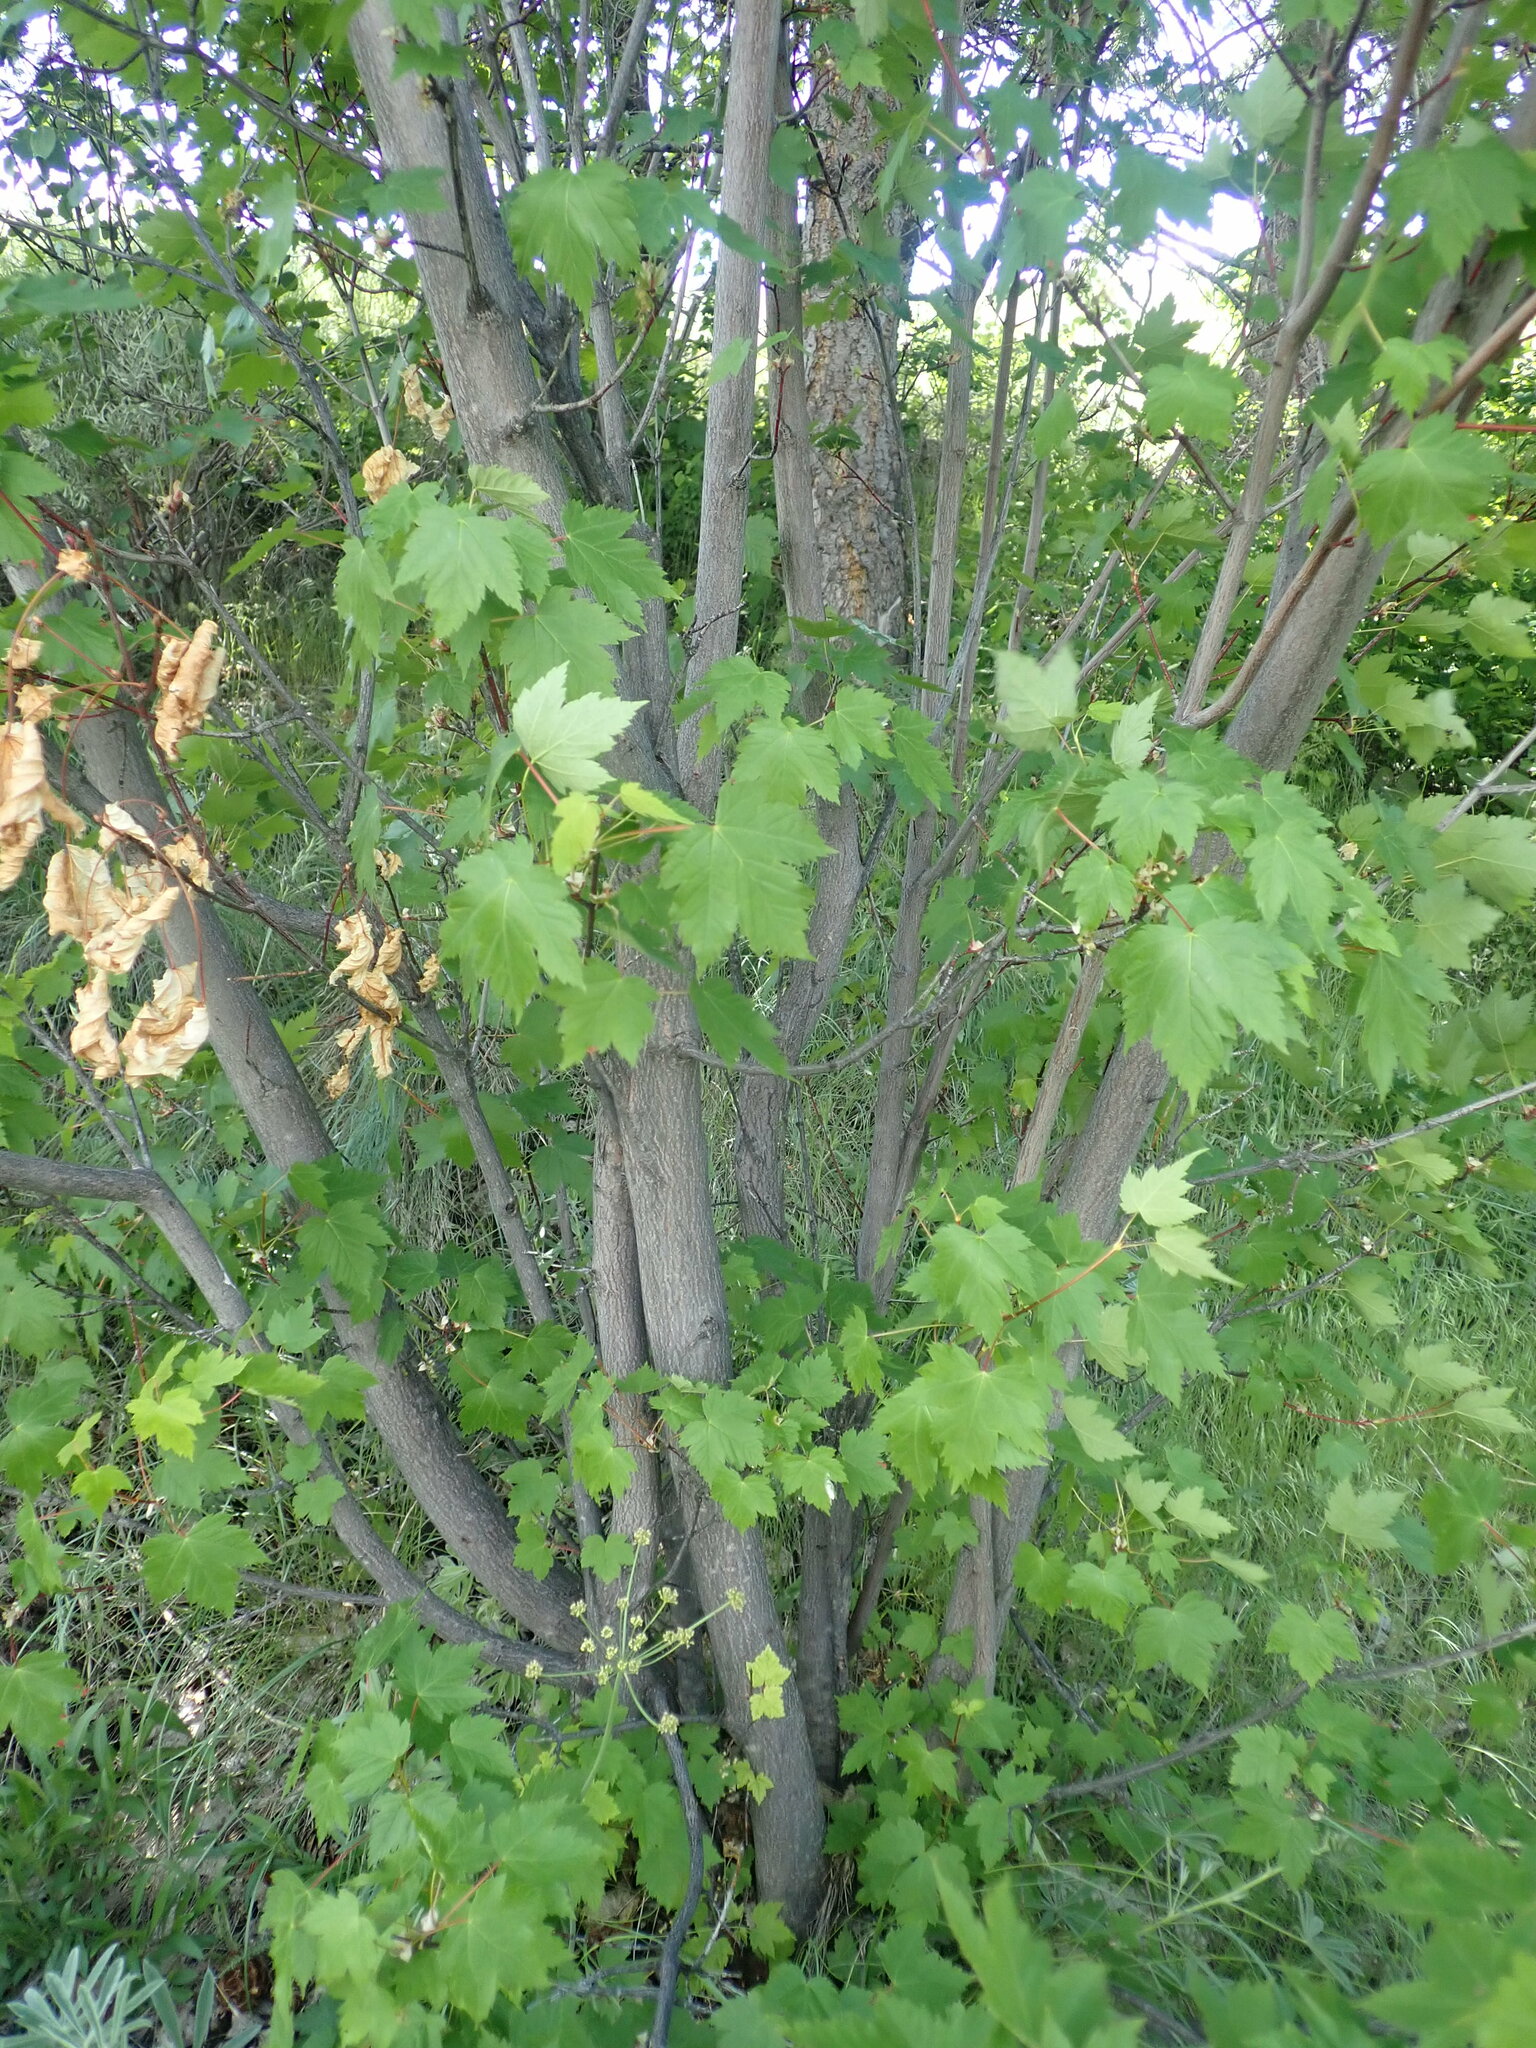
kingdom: Plantae
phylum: Tracheophyta
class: Magnoliopsida
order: Sapindales
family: Sapindaceae
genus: Acer
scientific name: Acer glabrum
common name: Rocky mountain maple
